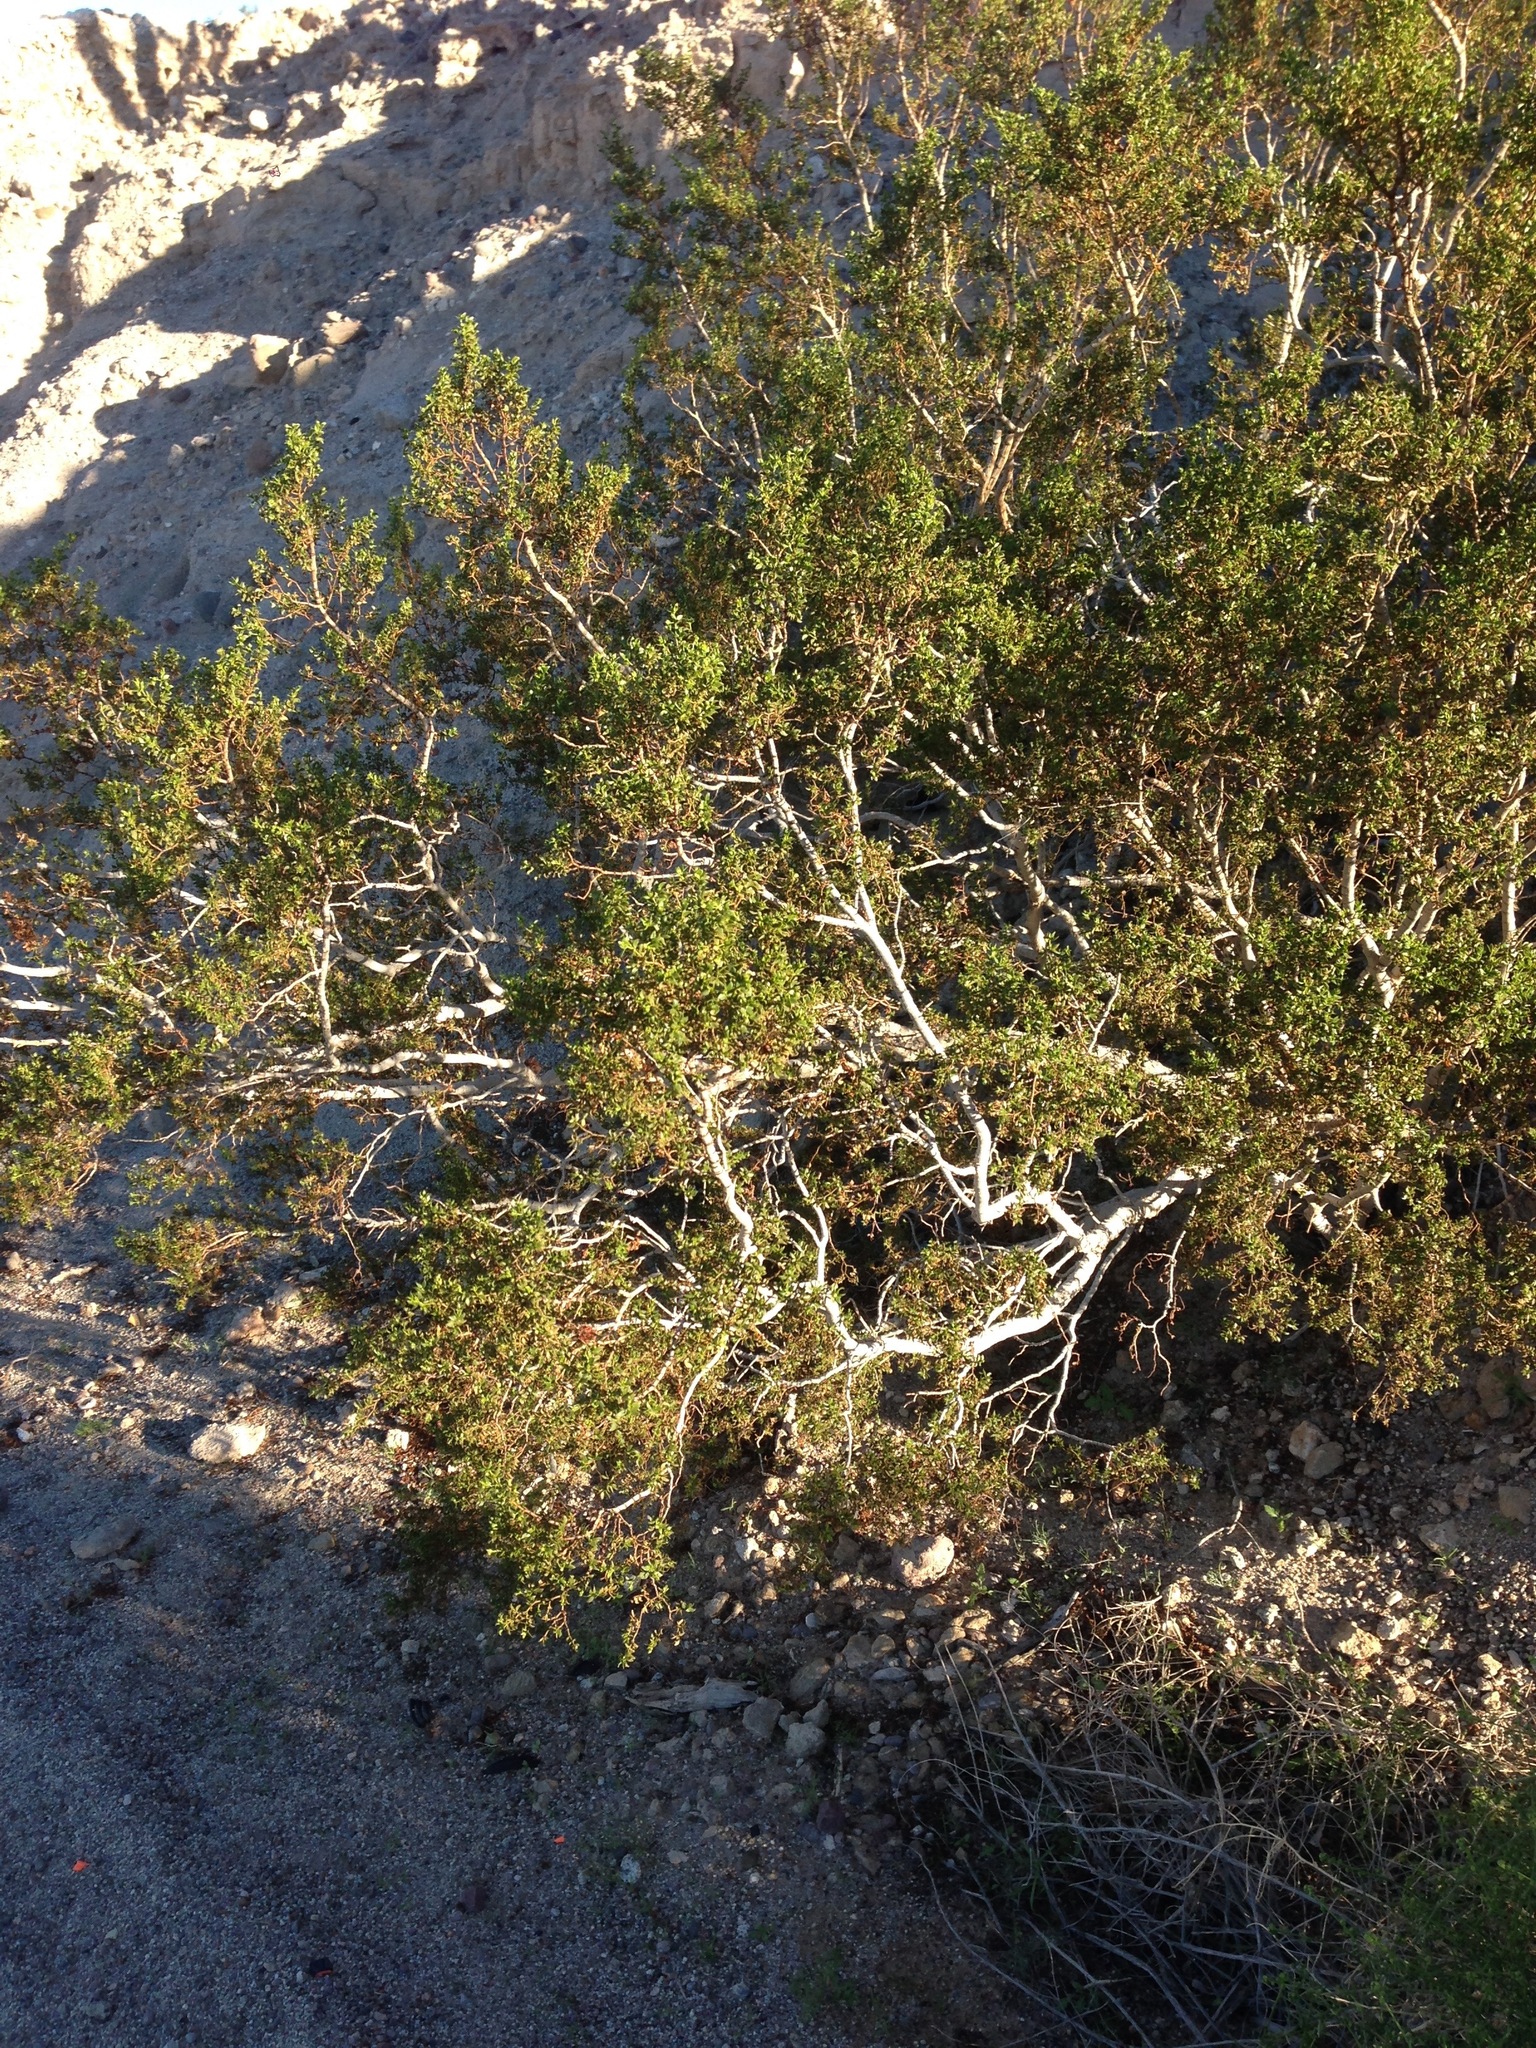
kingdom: Plantae
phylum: Tracheophyta
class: Magnoliopsida
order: Zygophyllales
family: Zygophyllaceae
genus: Larrea
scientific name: Larrea tridentata
